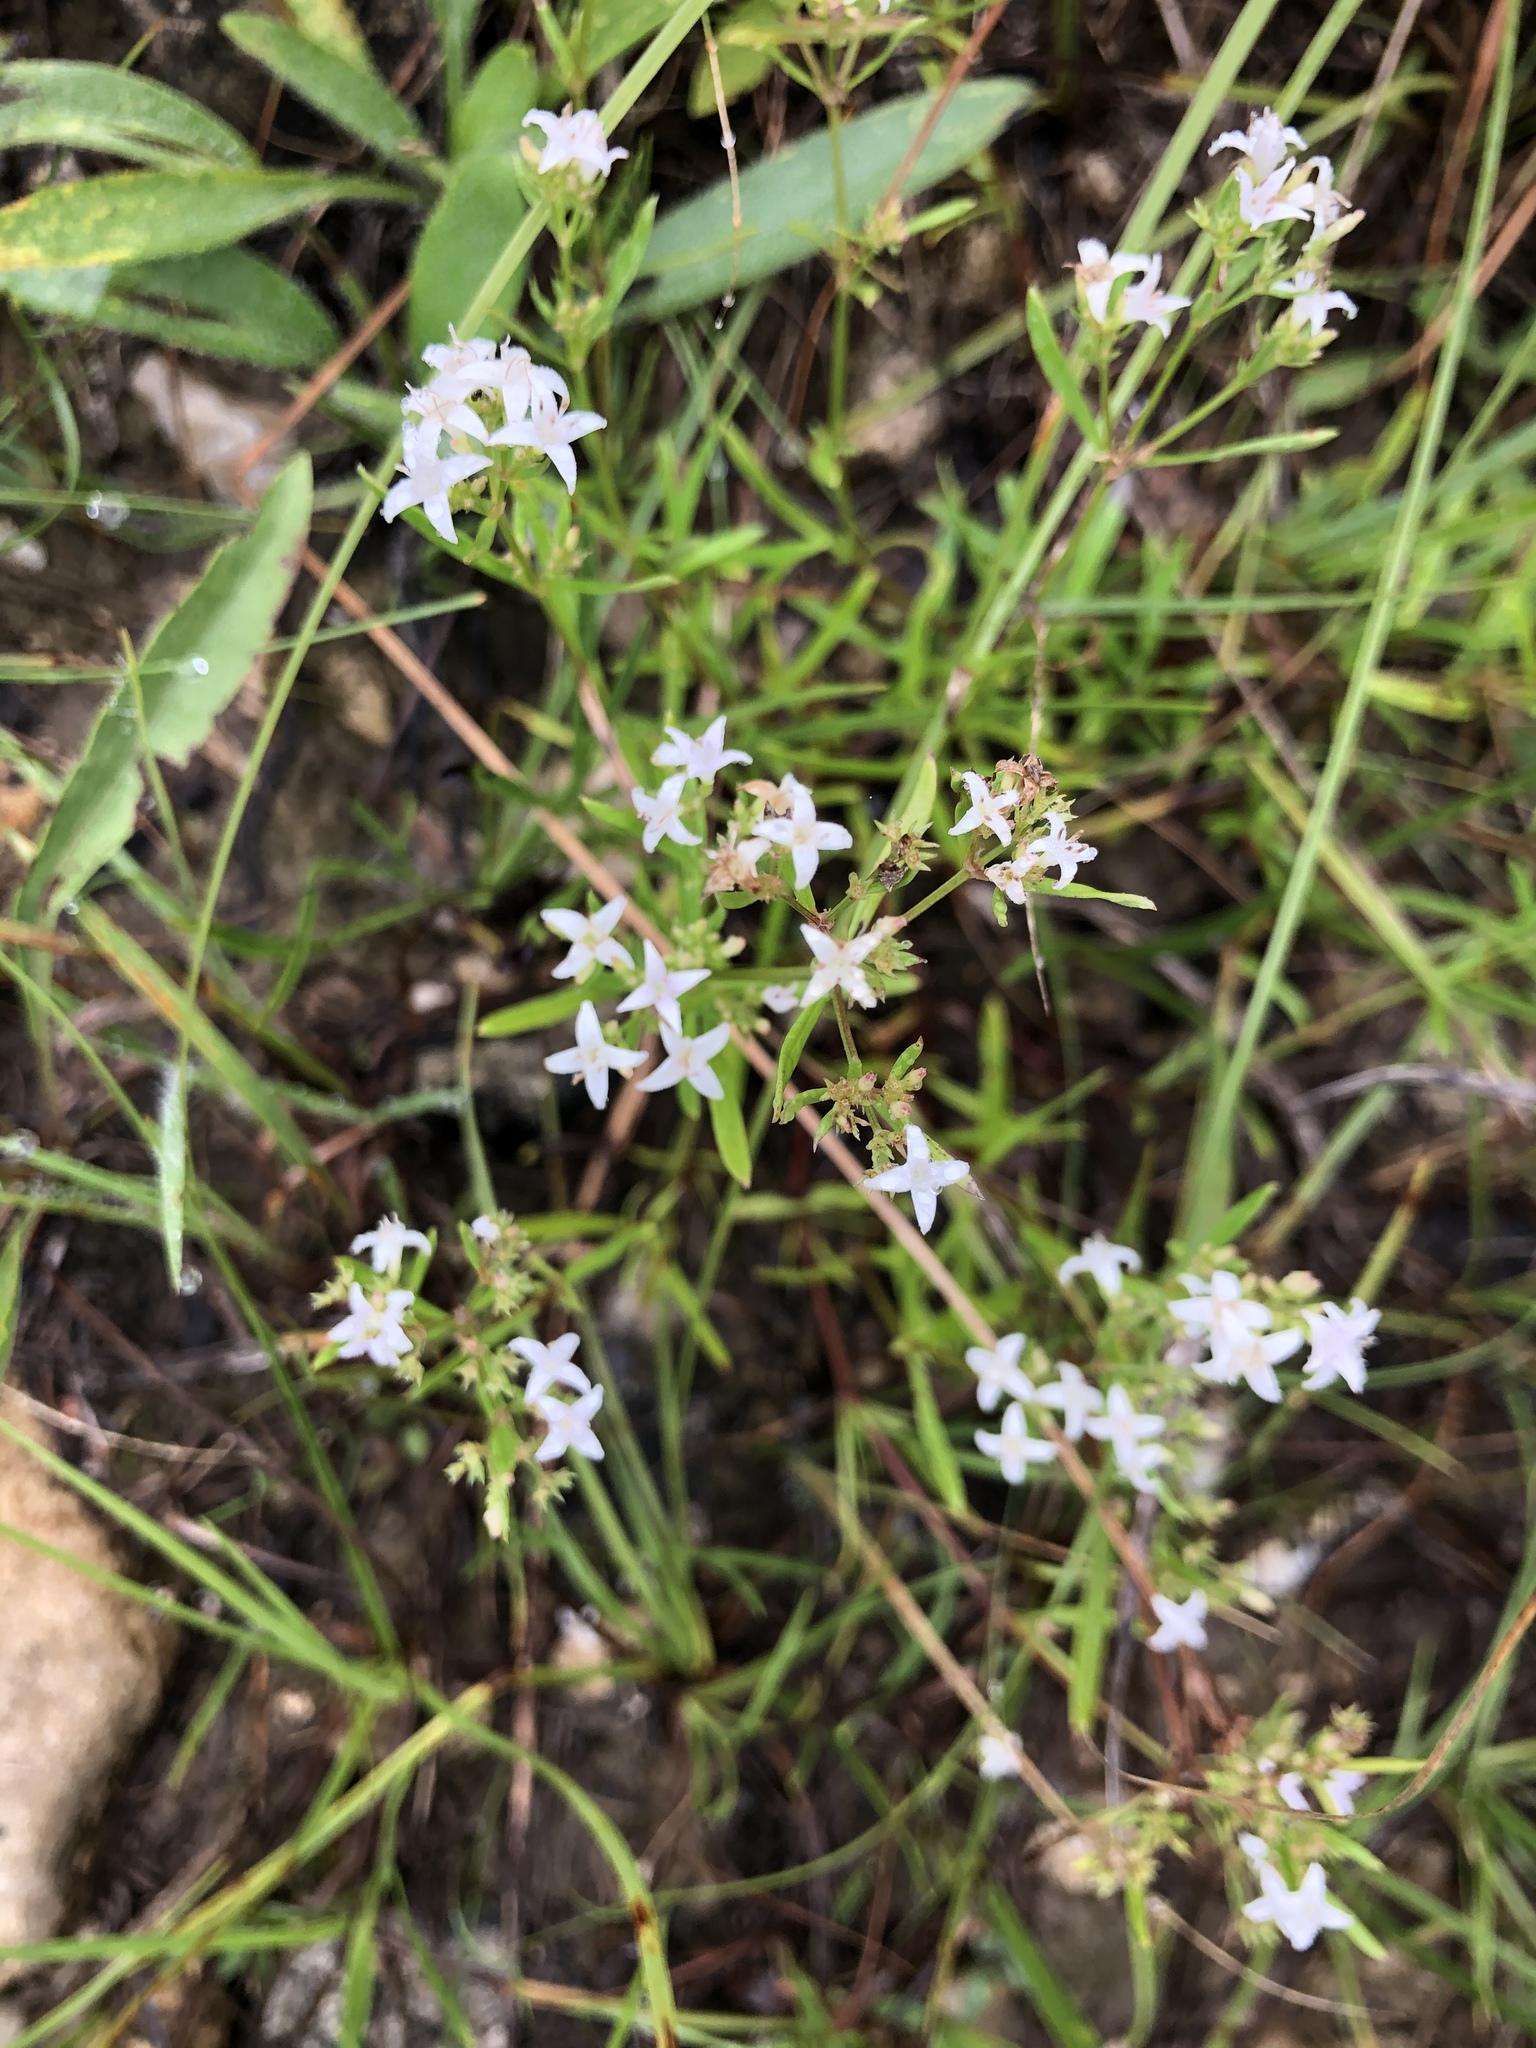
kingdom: Plantae
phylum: Tracheophyta
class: Magnoliopsida
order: Gentianales
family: Rubiaceae
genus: Stenaria
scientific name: Stenaria nigricans
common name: Diamondflowers
